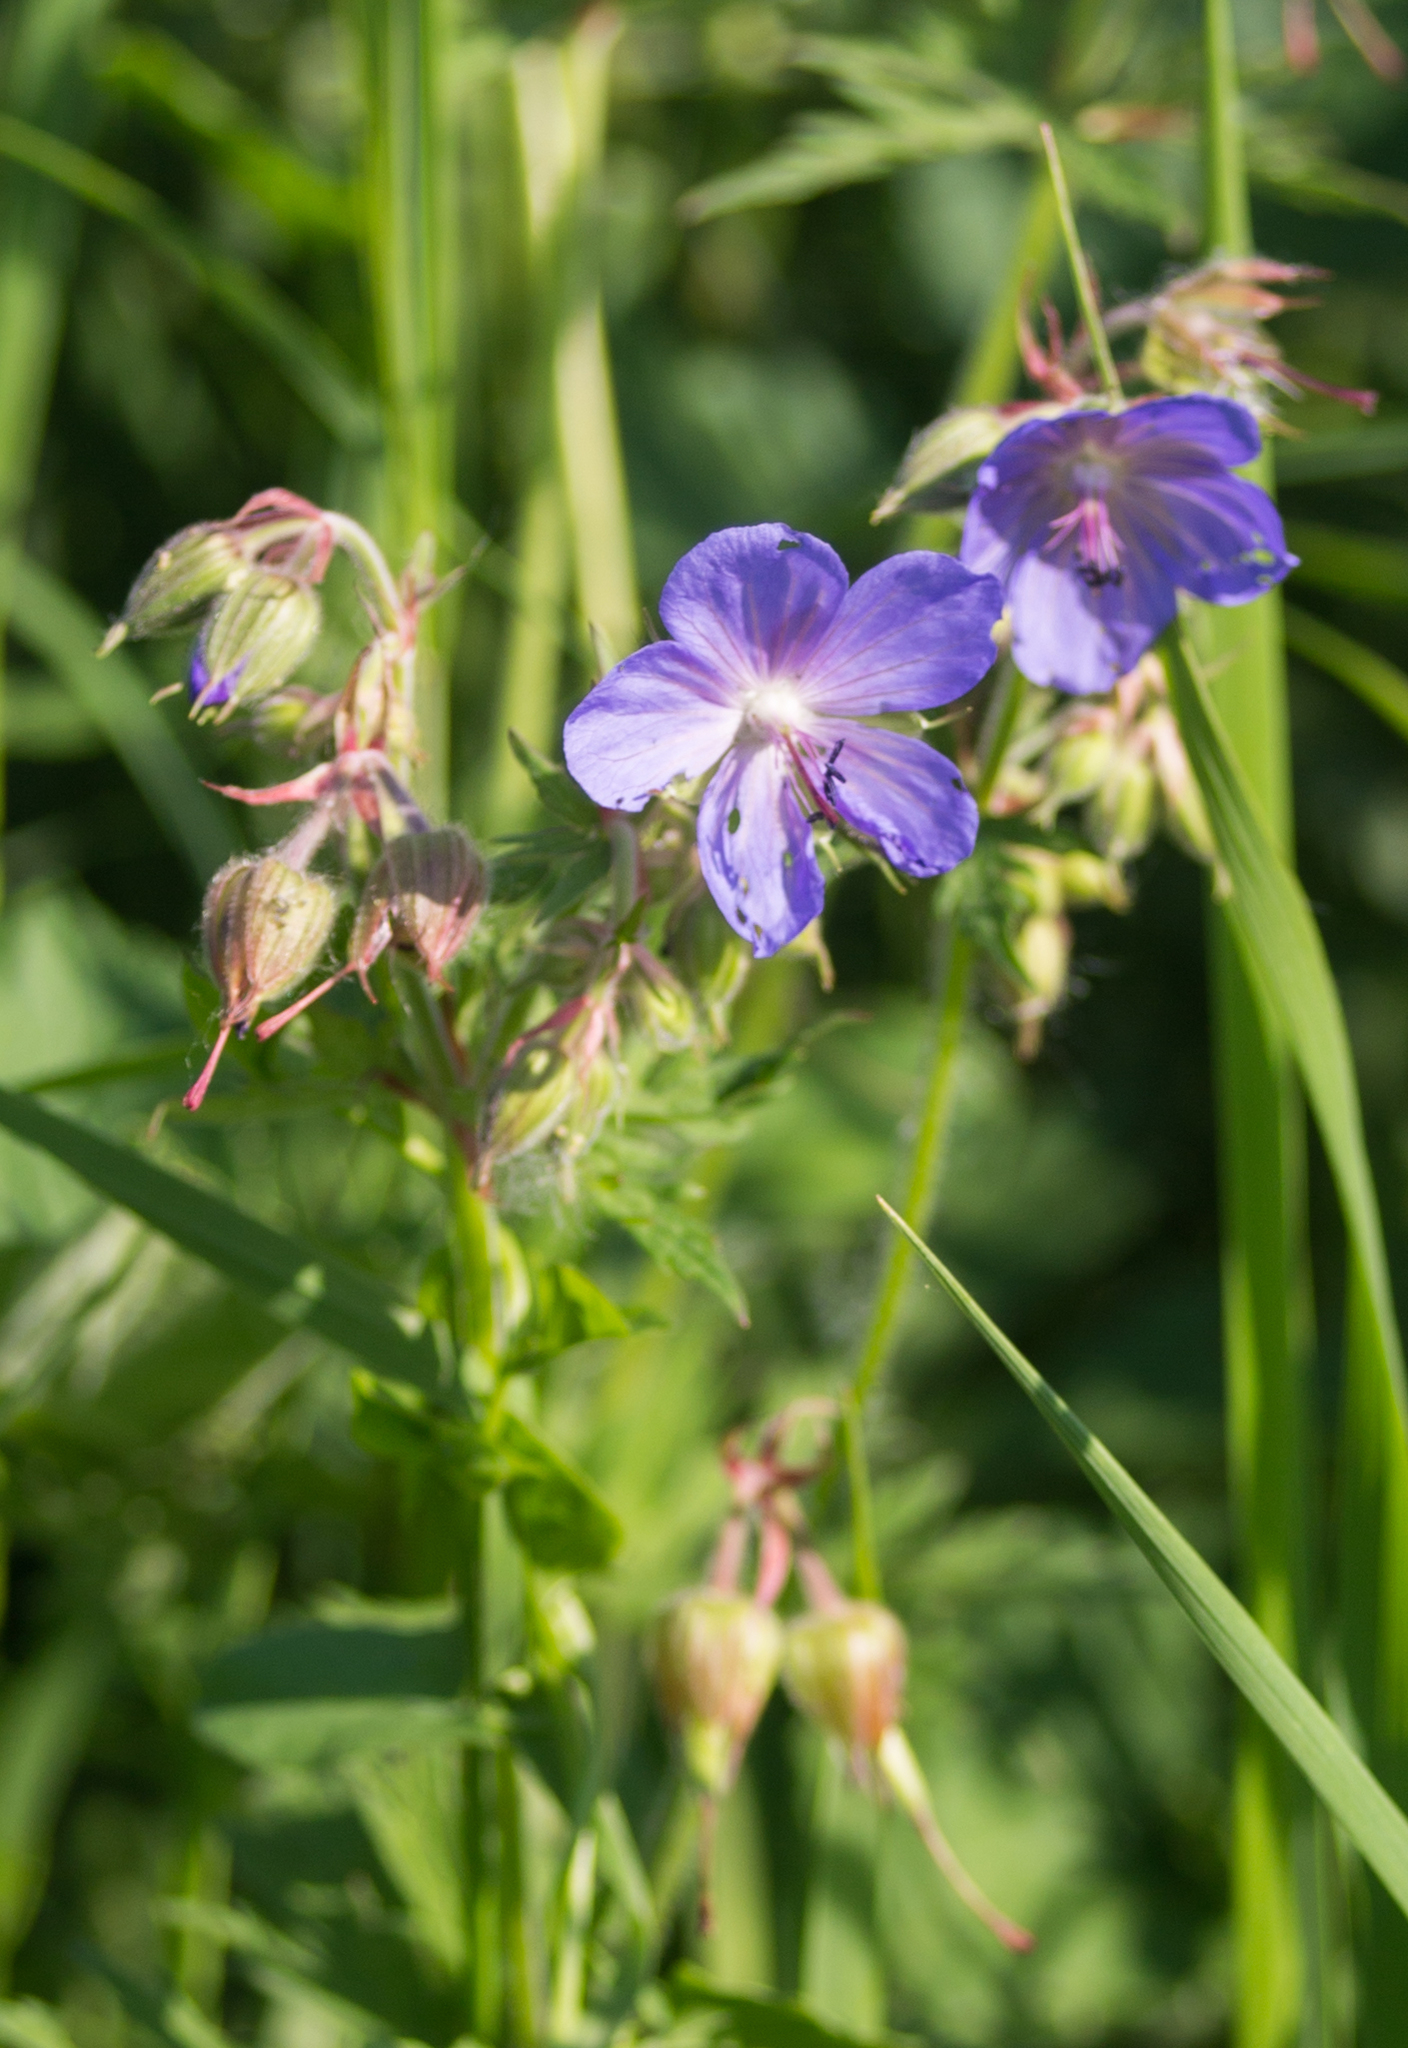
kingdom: Plantae
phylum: Tracheophyta
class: Magnoliopsida
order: Geraniales
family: Geraniaceae
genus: Geranium
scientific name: Geranium pratense
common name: Meadow crane's-bill
